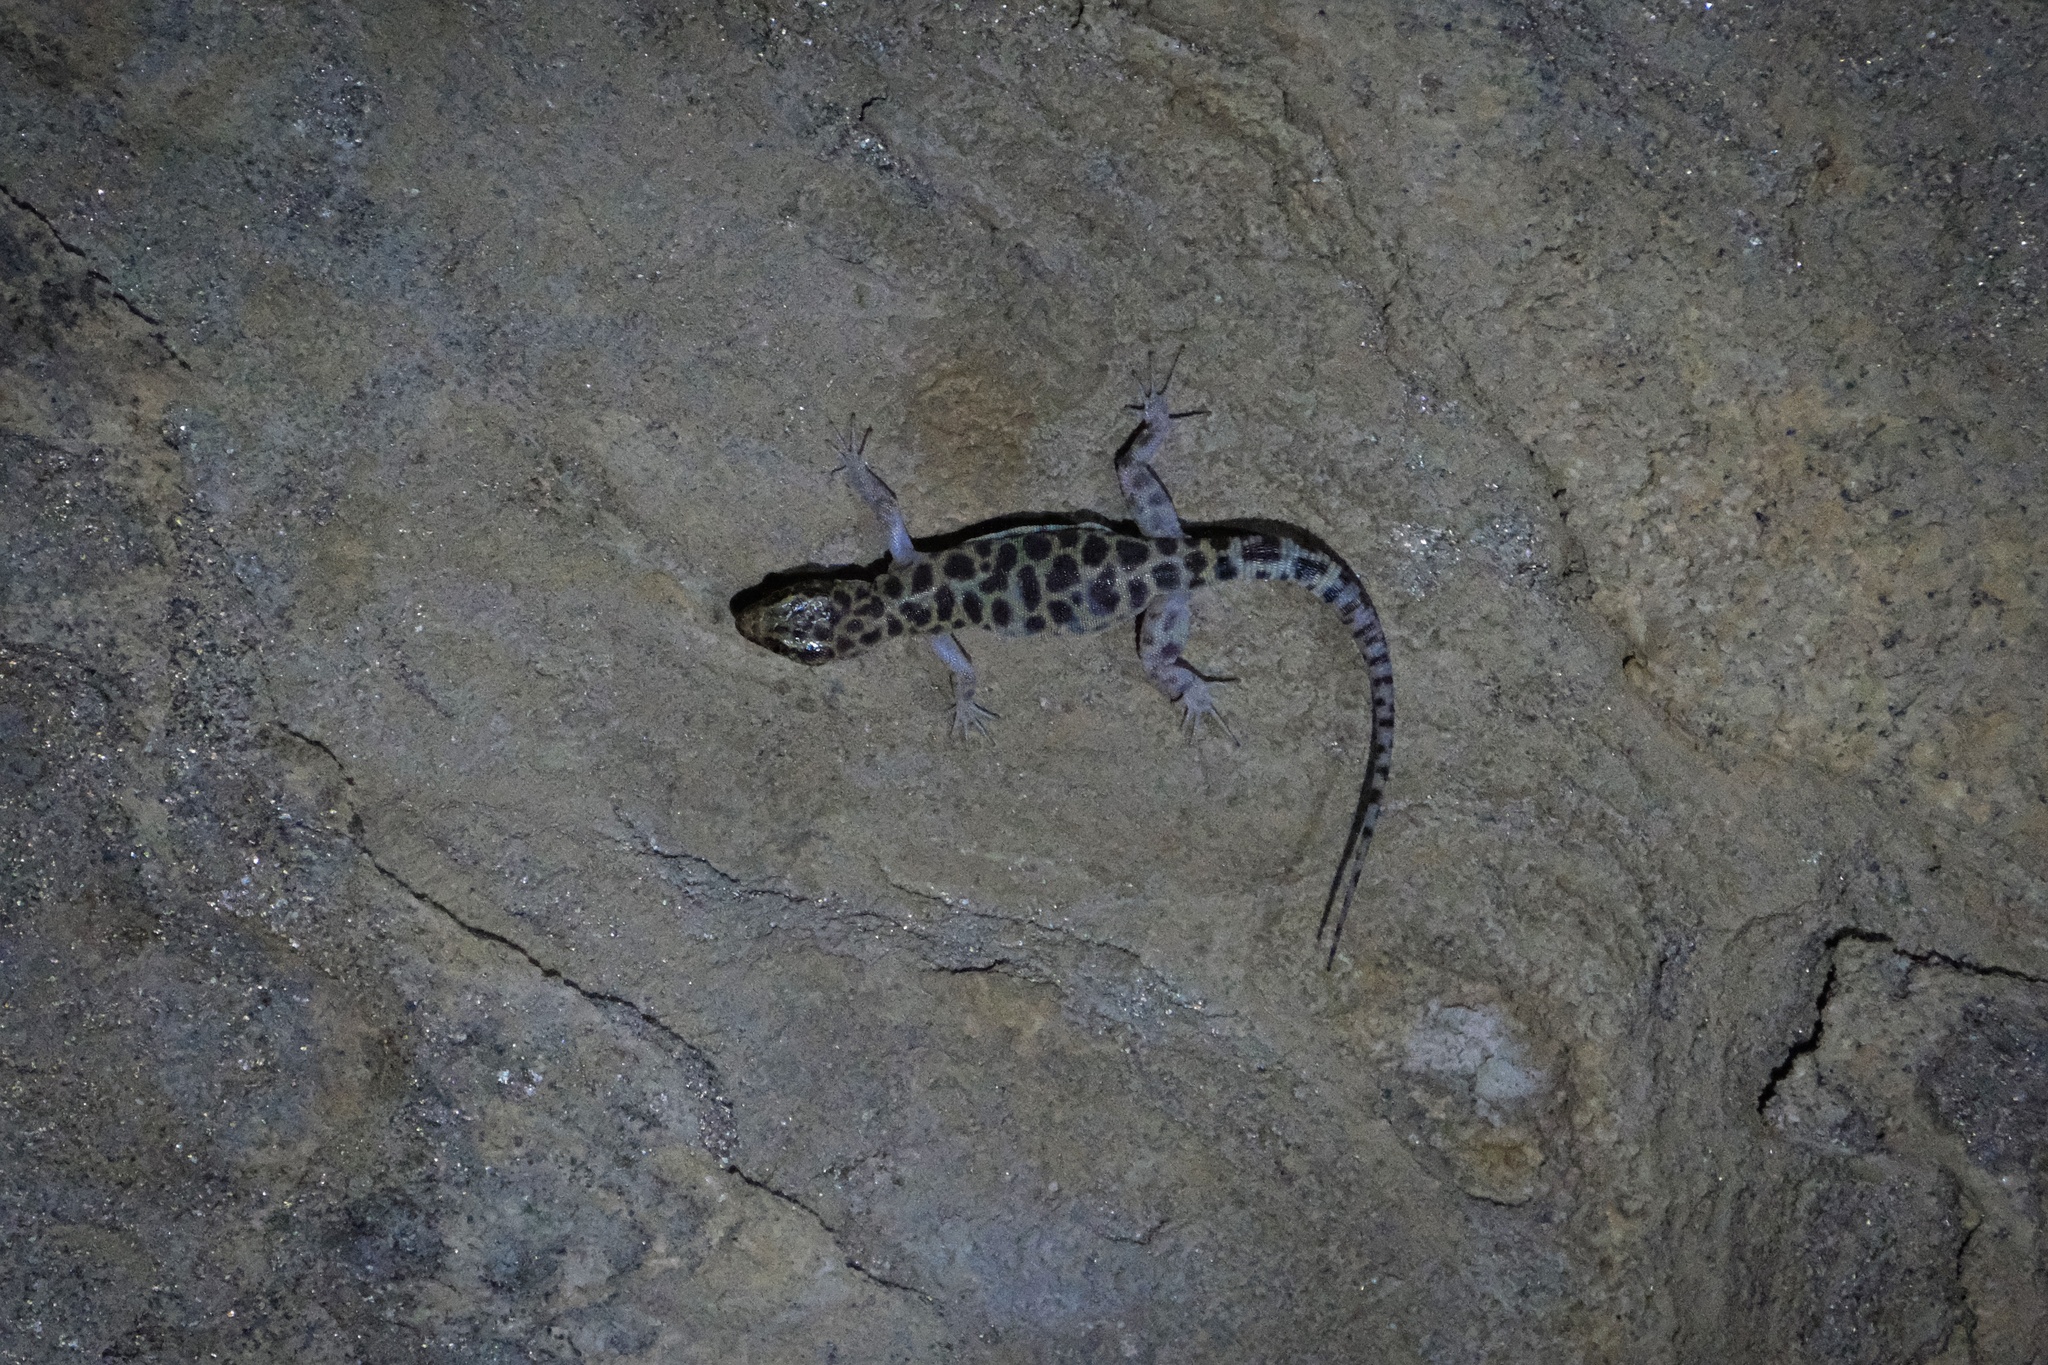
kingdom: Animalia
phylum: Chordata
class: Squamata
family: Xantusiidae
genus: Xantusia
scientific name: Xantusia henshawi
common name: Granite night lizard
